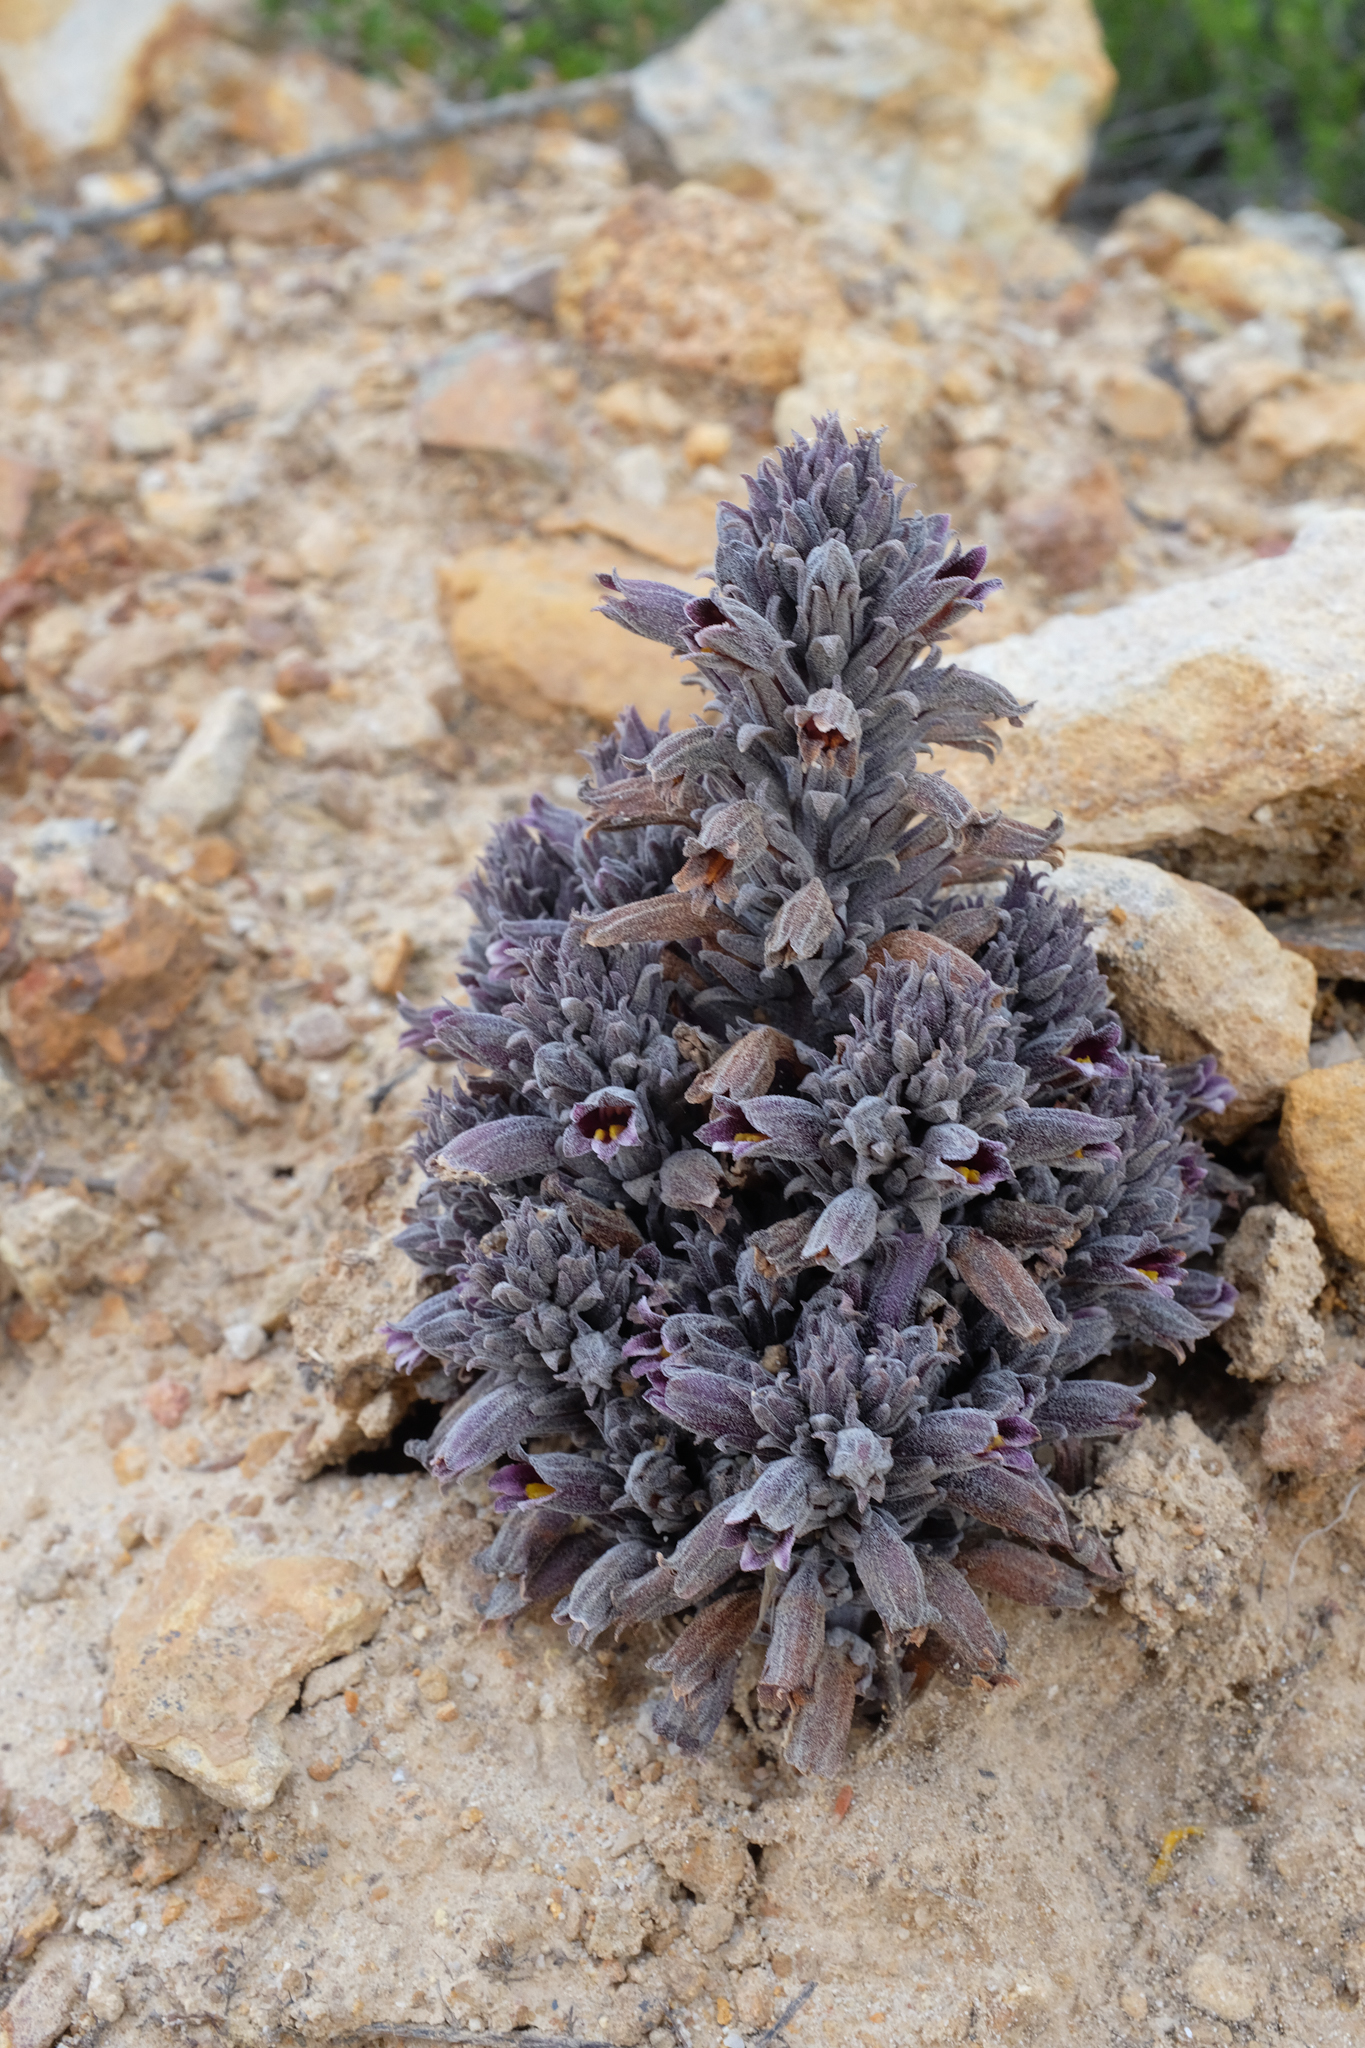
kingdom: Plantae
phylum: Tracheophyta
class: Magnoliopsida
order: Lamiales
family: Orobanchaceae
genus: Aphyllon
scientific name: Aphyllon tuberosum
